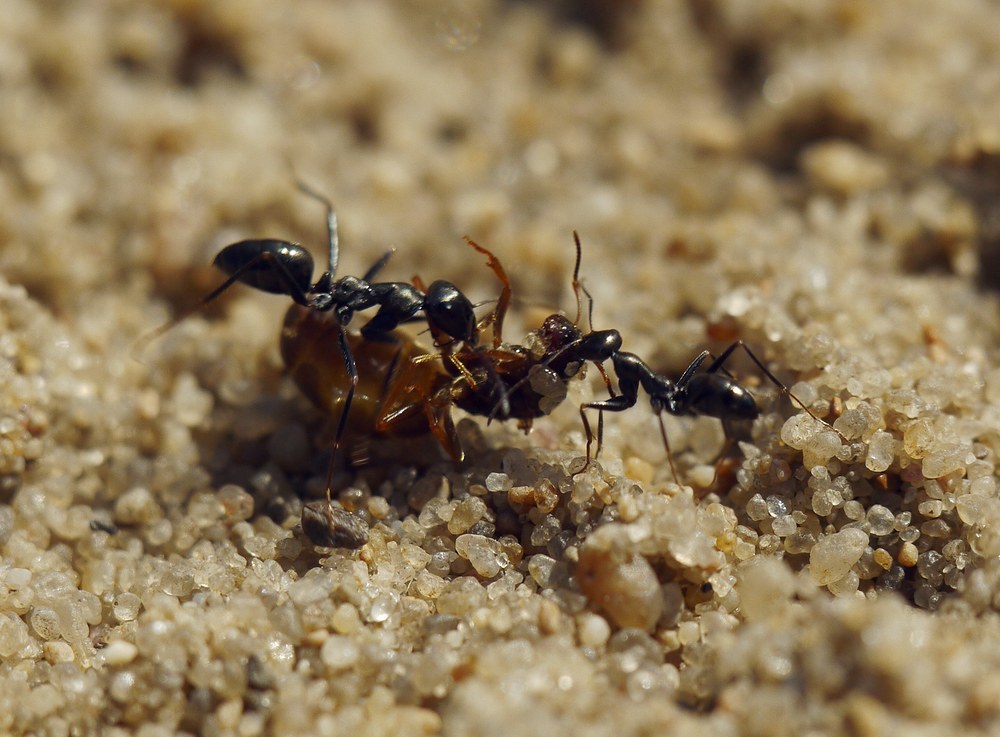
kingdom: Animalia
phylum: Arthropoda
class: Insecta
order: Hymenoptera
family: Formicidae
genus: Cataglyphis
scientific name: Cataglyphis aenescens
